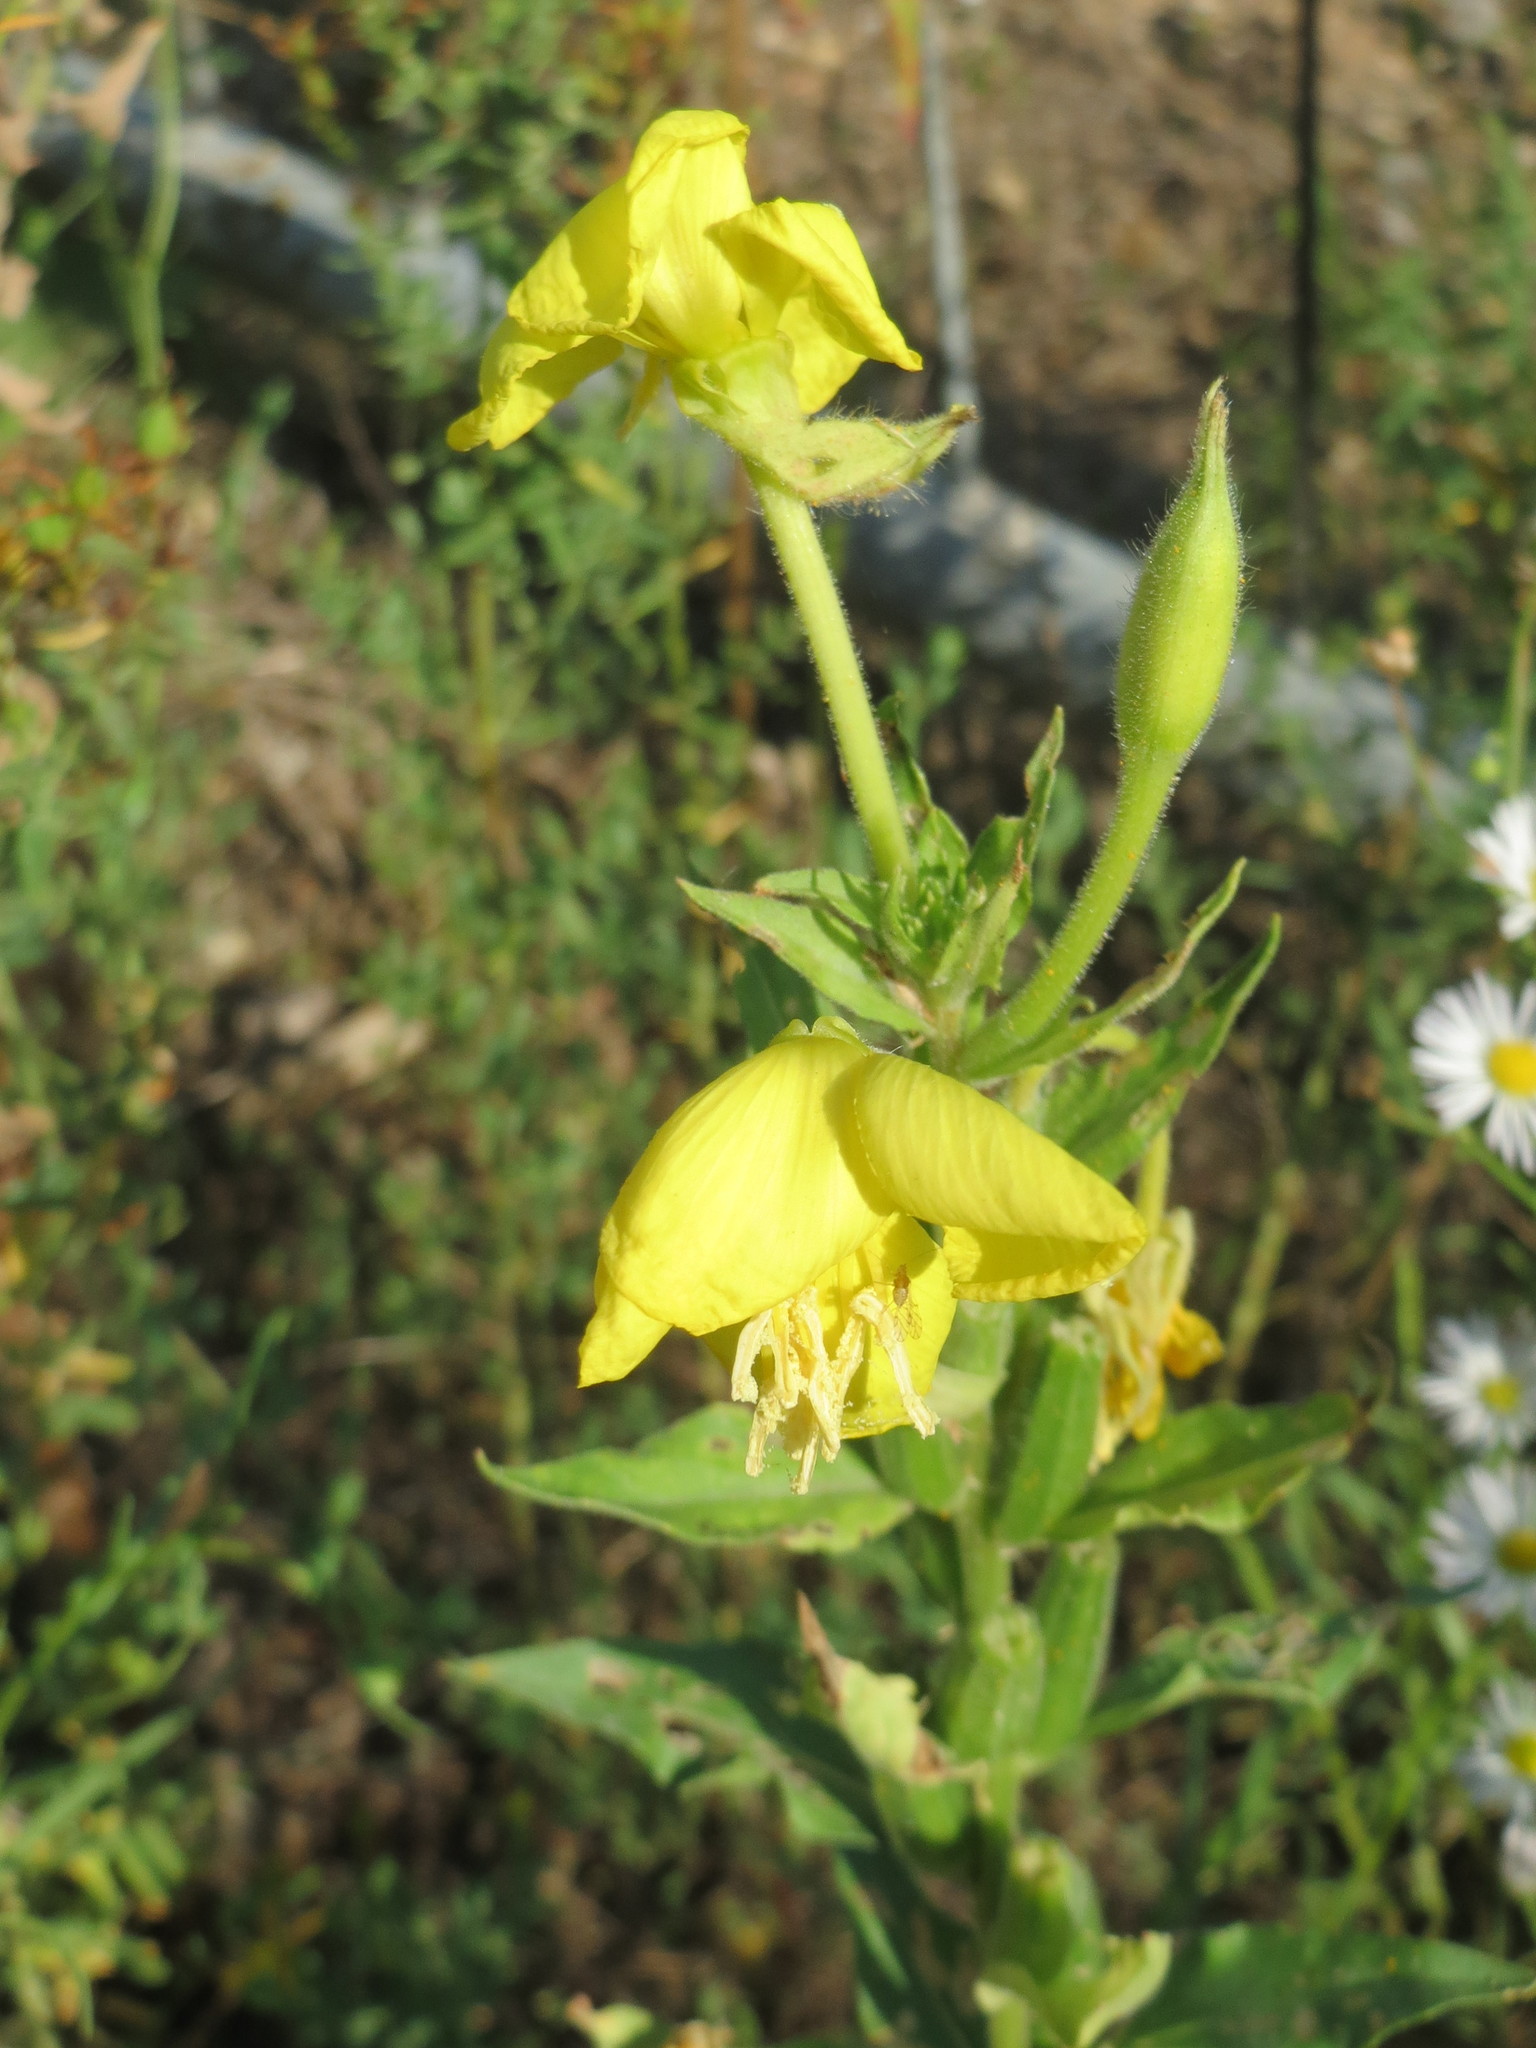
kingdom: Plantae
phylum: Tracheophyta
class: Magnoliopsida
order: Myrtales
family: Onagraceae
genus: Oenothera
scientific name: Oenothera biennis
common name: Common evening-primrose
